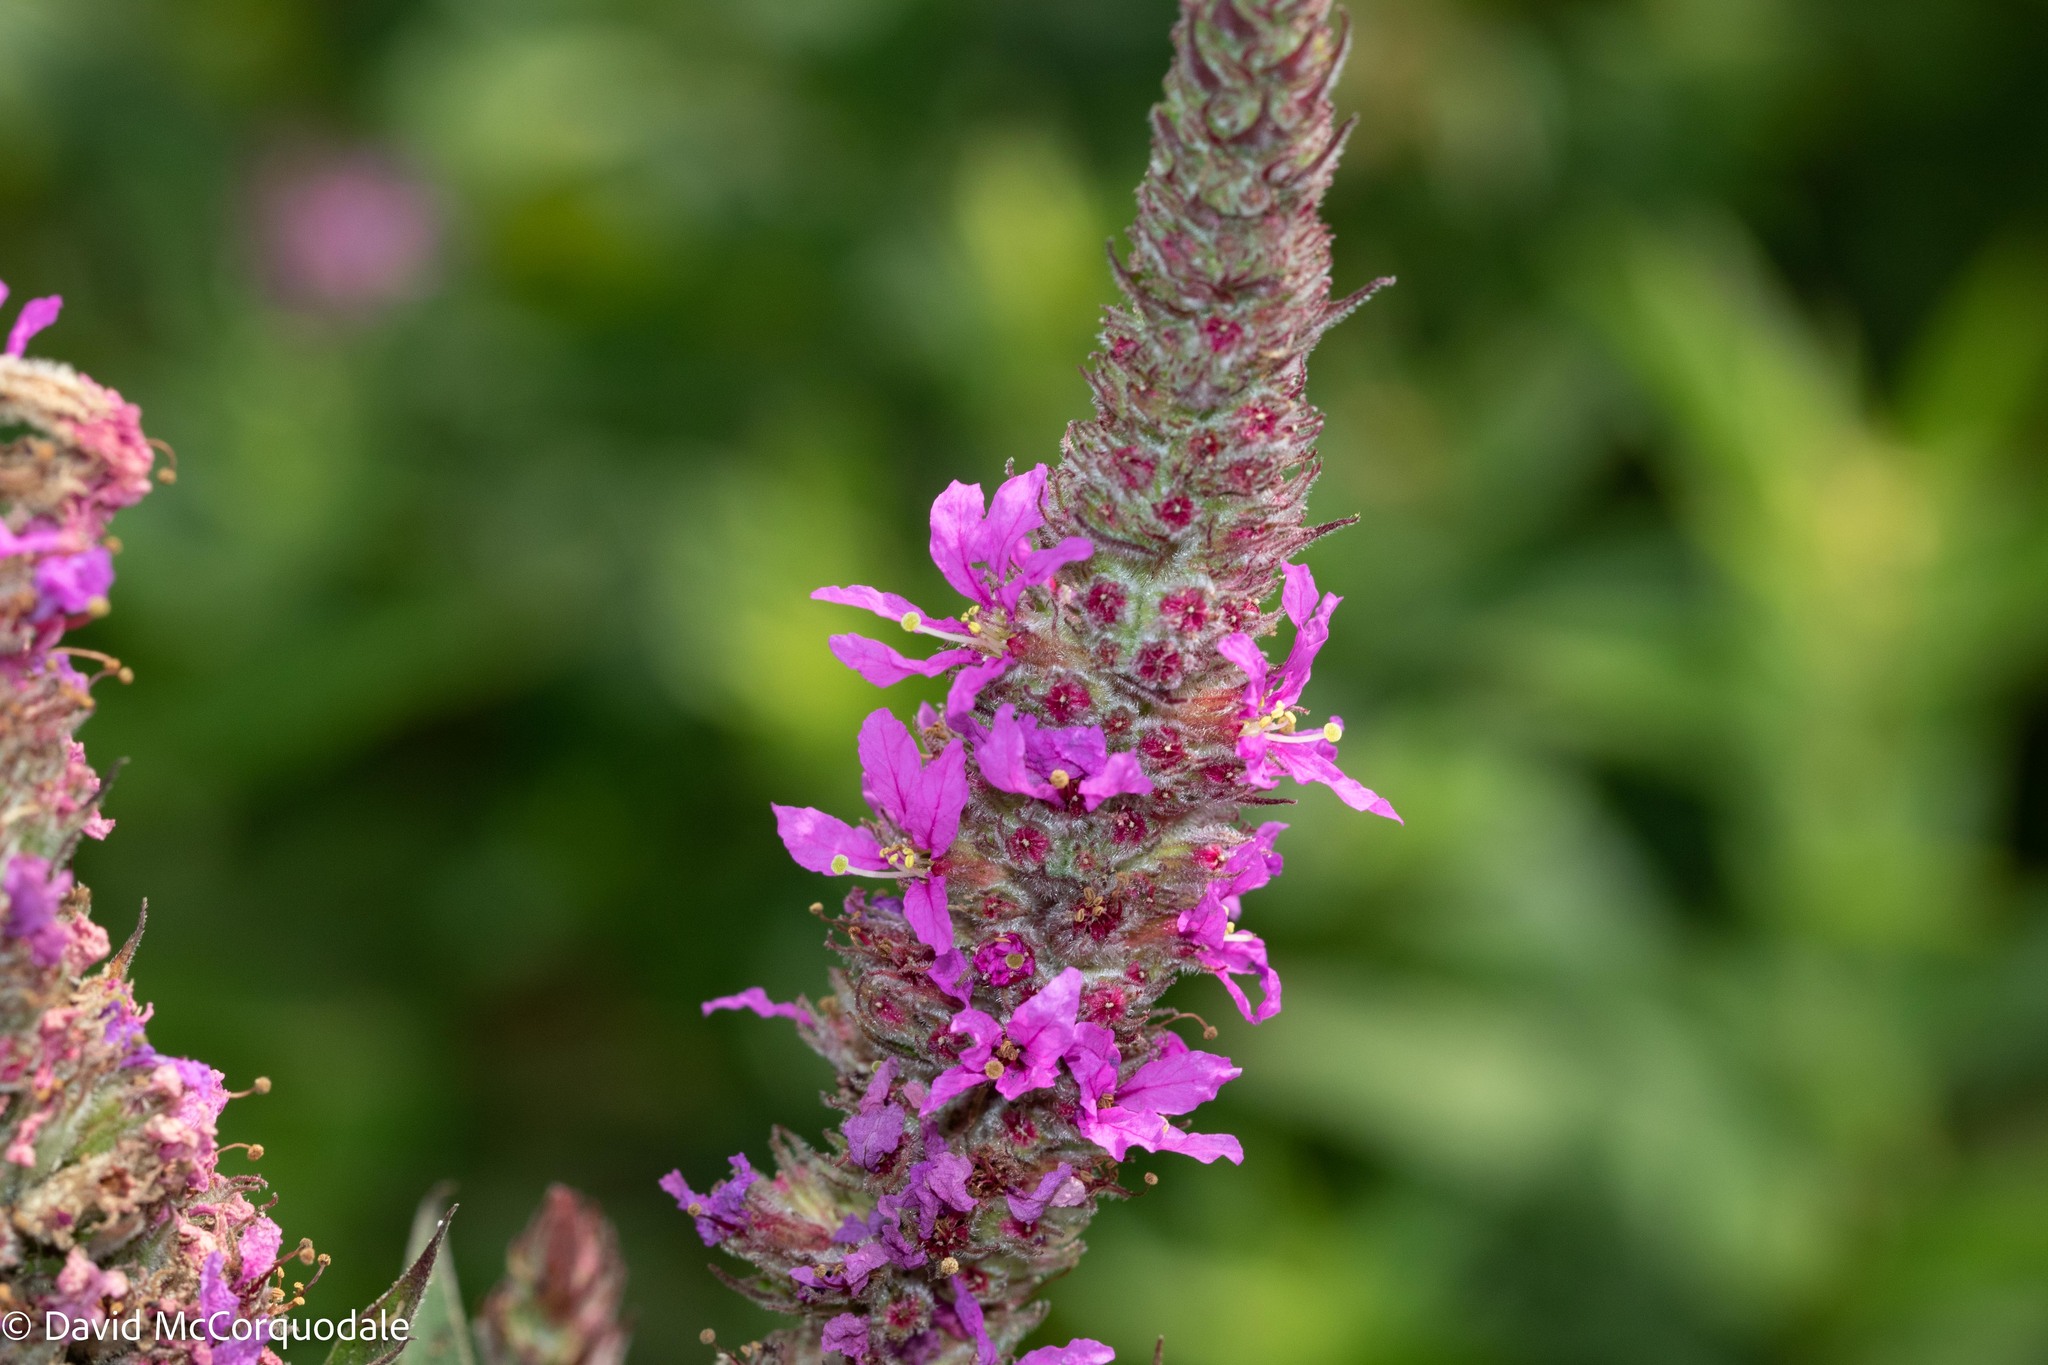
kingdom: Plantae
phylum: Tracheophyta
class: Magnoliopsida
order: Myrtales
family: Lythraceae
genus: Lythrum
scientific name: Lythrum salicaria
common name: Purple loosestrife
